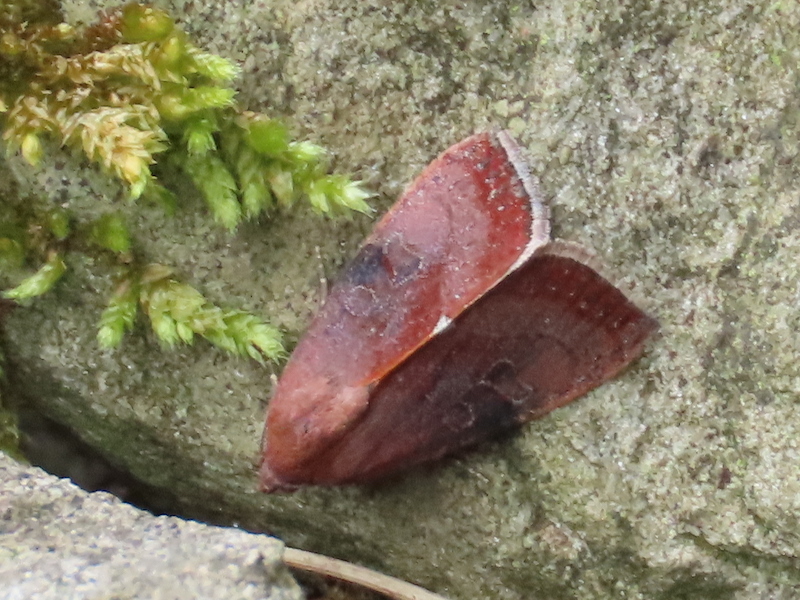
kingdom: Animalia
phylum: Arthropoda
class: Insecta
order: Lepidoptera
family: Noctuidae
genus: Galgula
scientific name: Galgula partita
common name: Wedgeling
